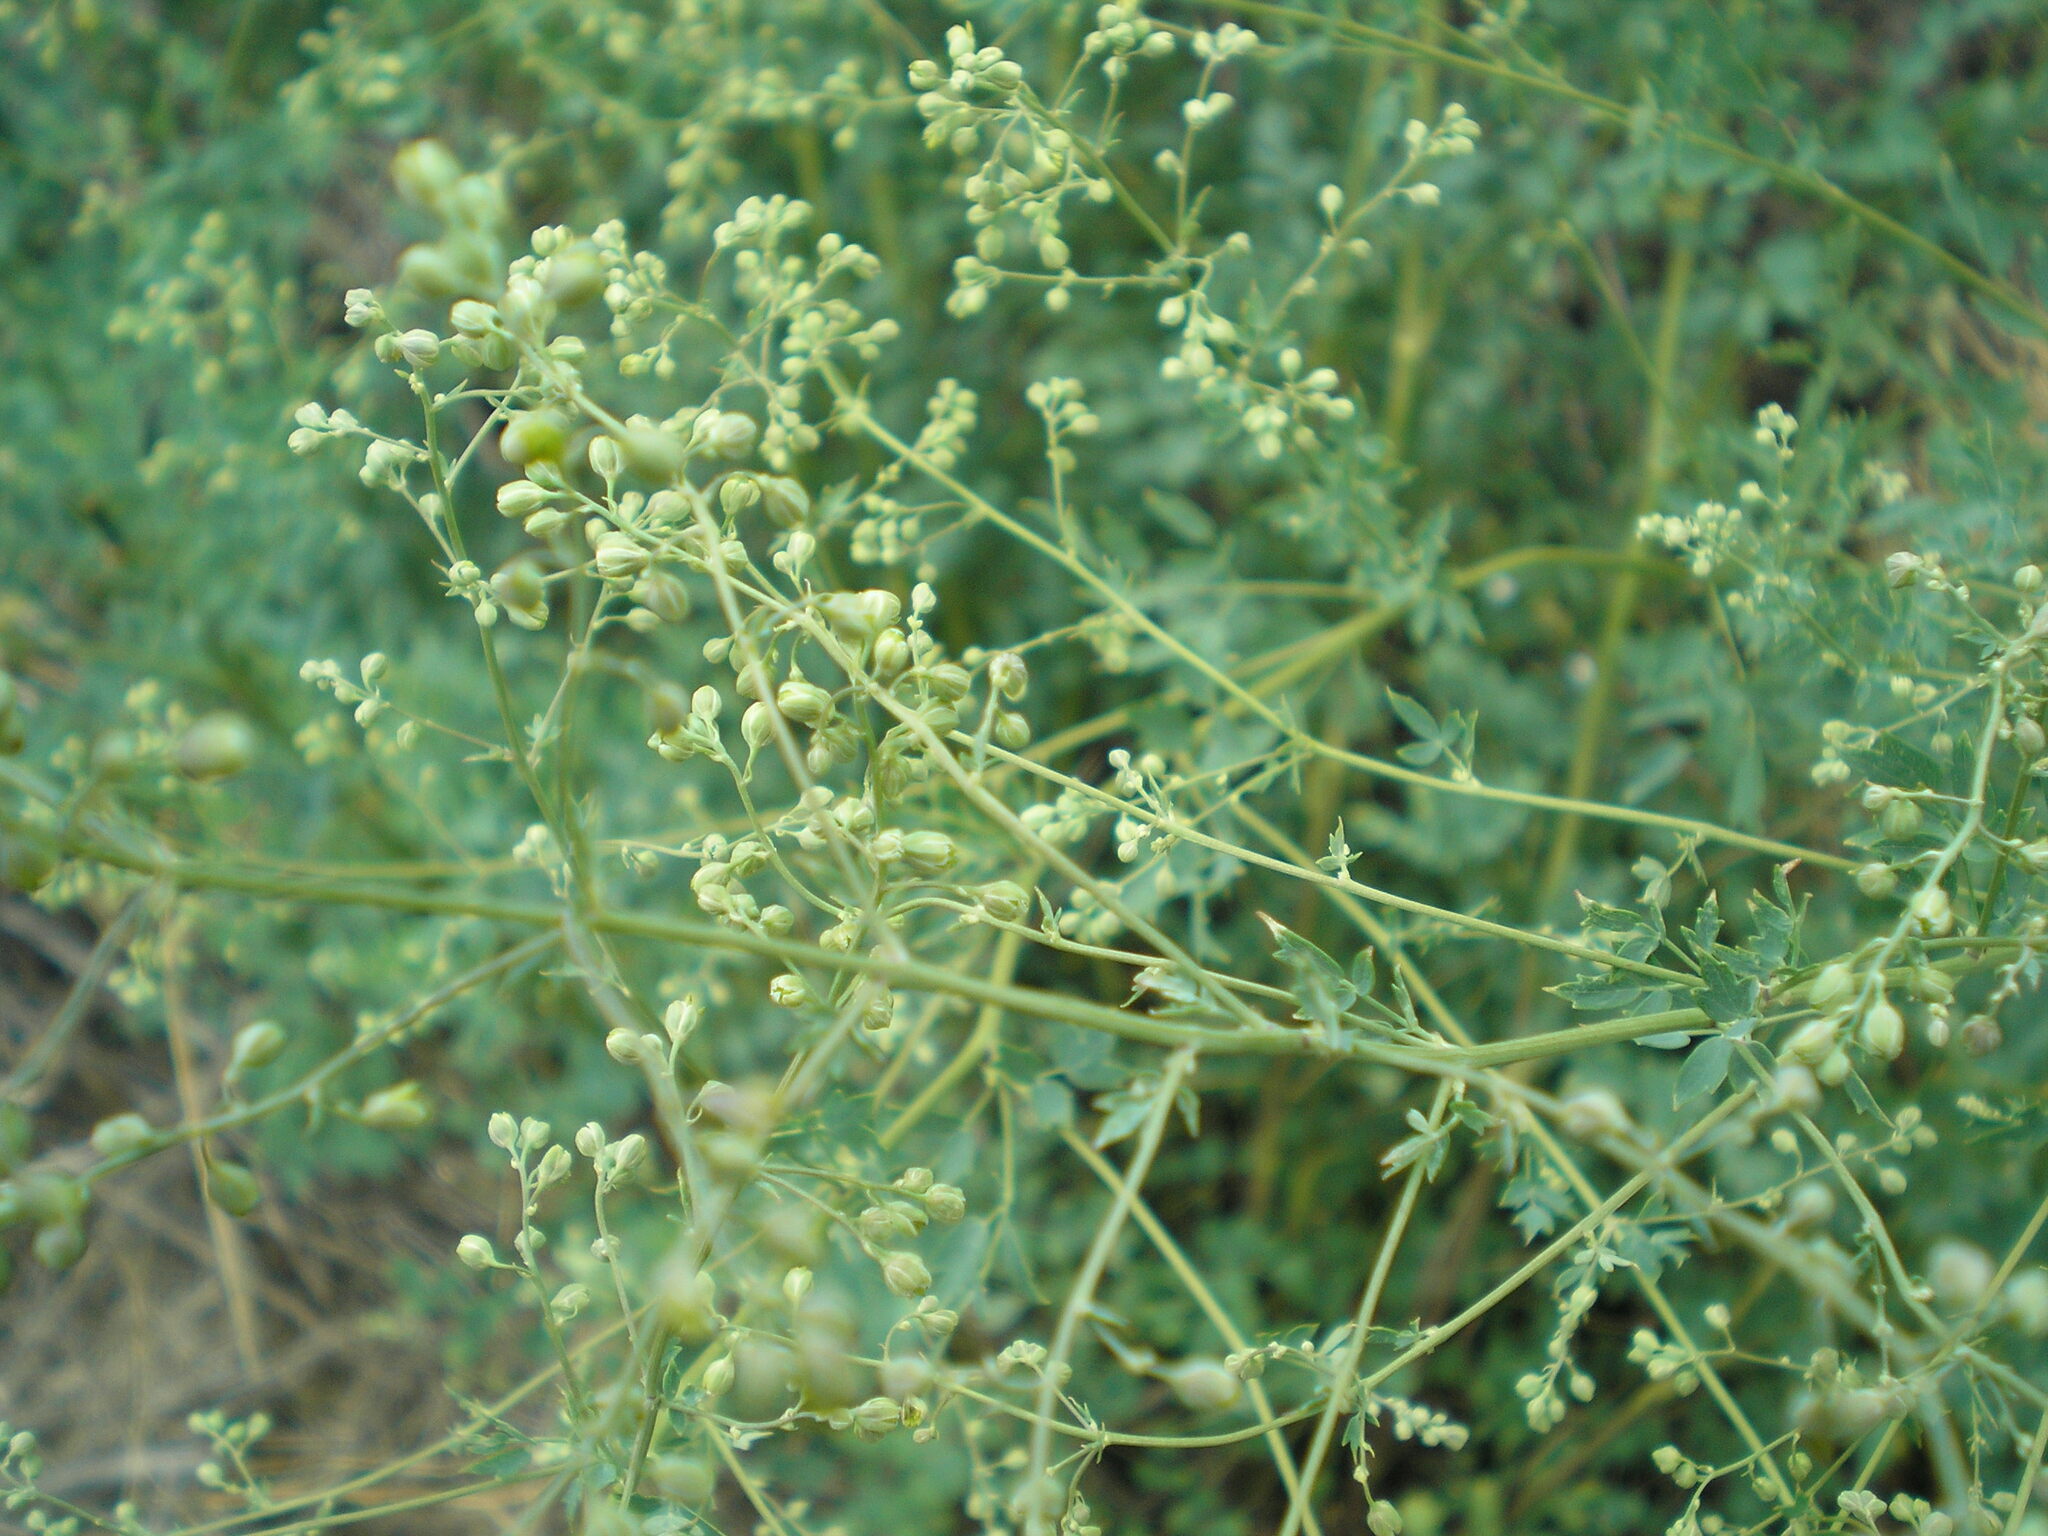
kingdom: Plantae
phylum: Tracheophyta
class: Magnoliopsida
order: Ranunculales
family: Ranunculaceae
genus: Thalictrum
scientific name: Thalictrum minus
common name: Lesser meadow-rue
